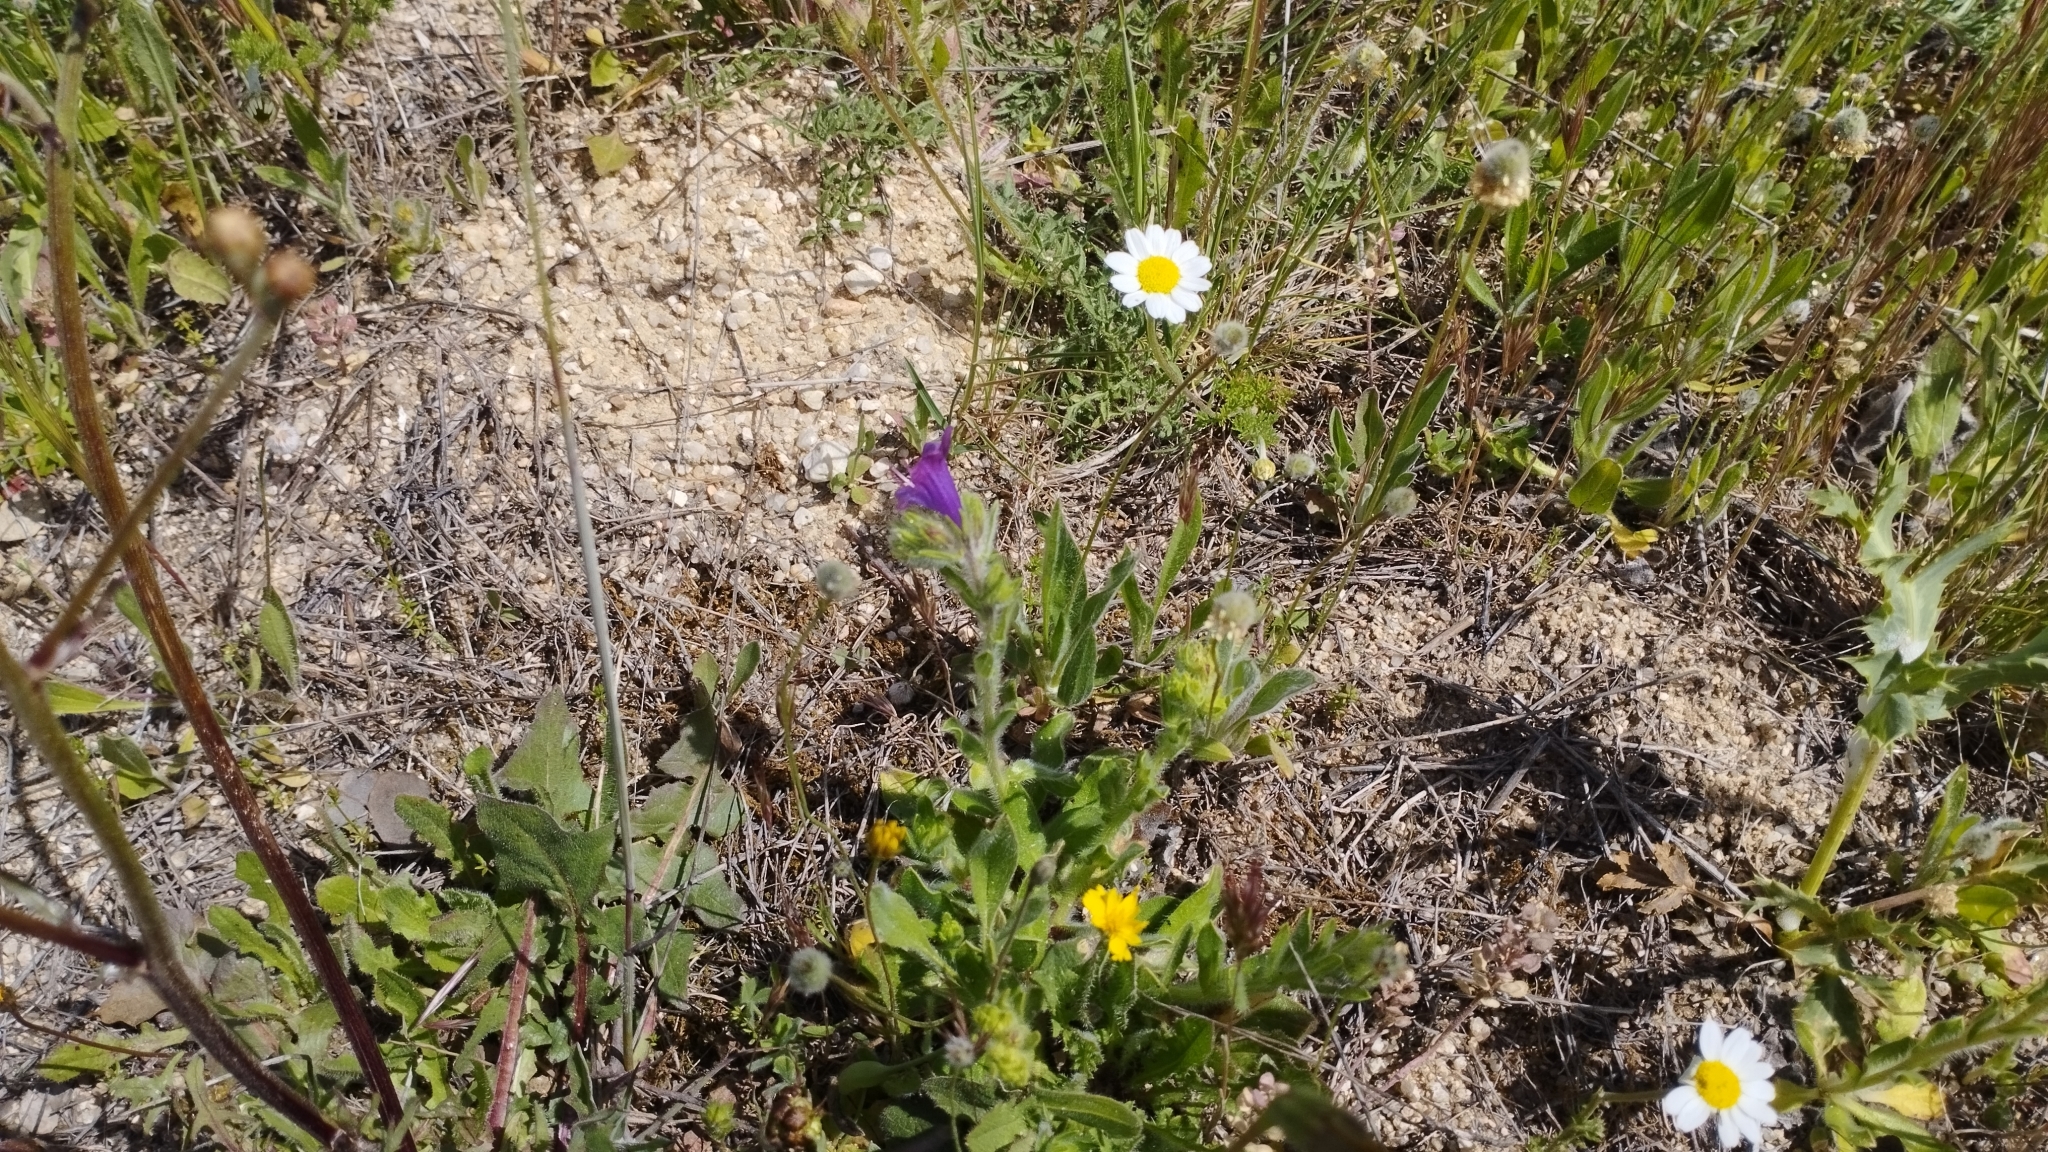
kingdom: Plantae
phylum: Tracheophyta
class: Magnoliopsida
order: Boraginales
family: Boraginaceae
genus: Echium
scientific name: Echium plantagineum
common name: Purple viper's-bugloss
